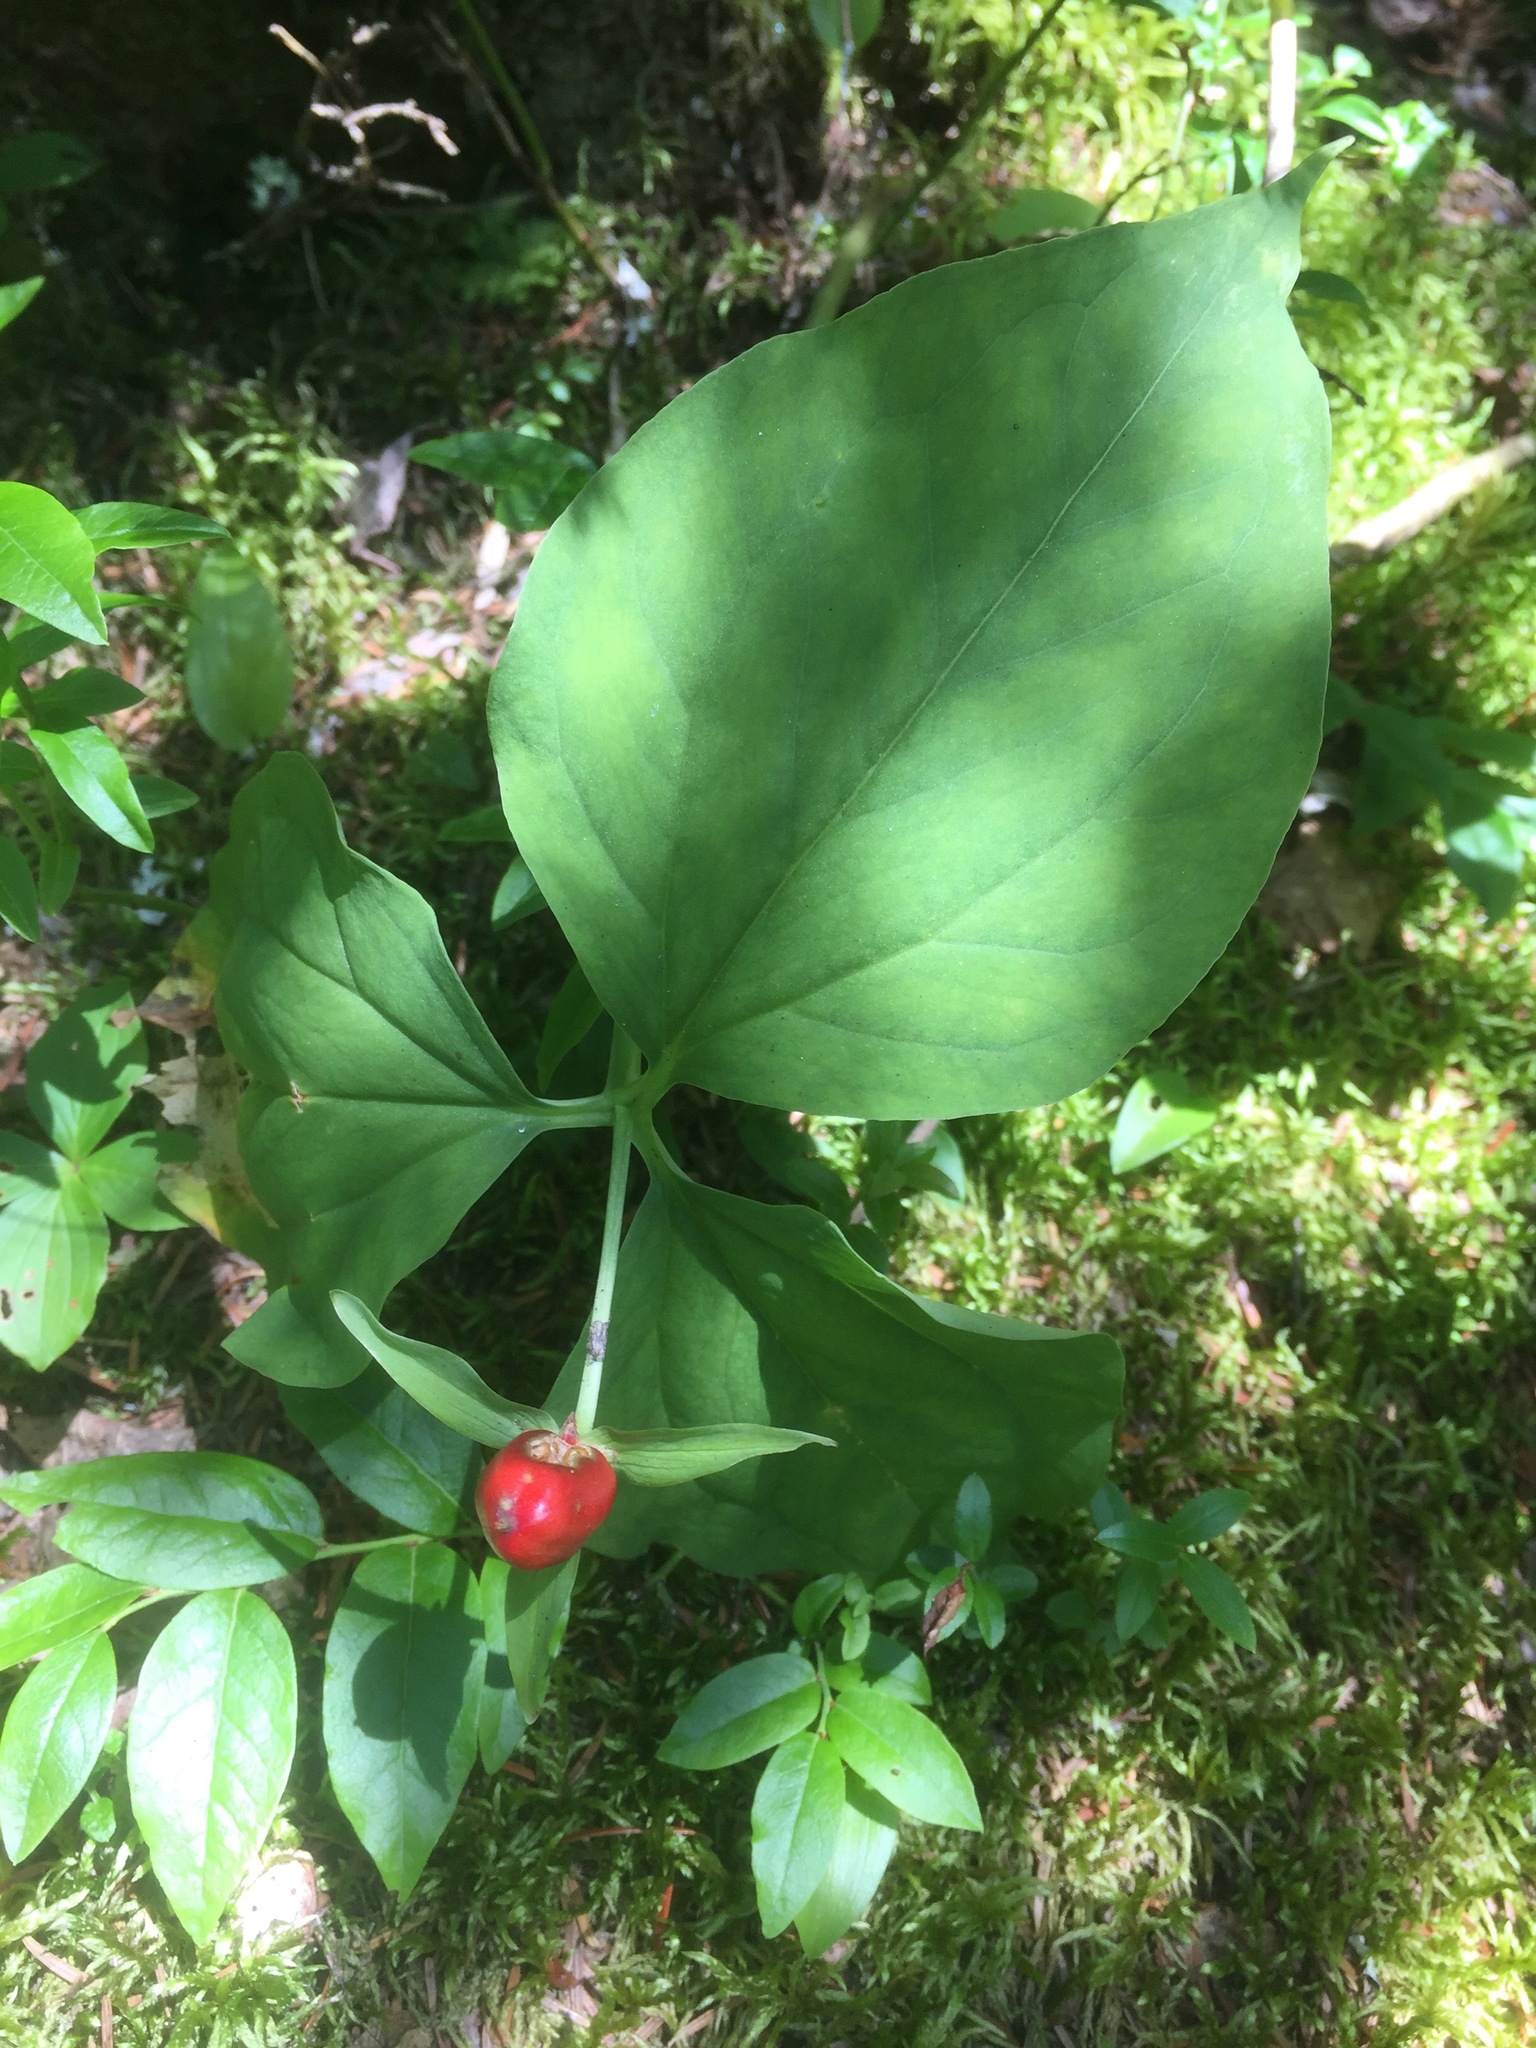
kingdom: Plantae
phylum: Tracheophyta
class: Liliopsida
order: Liliales
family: Melanthiaceae
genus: Trillium
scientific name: Trillium undulatum
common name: Paint trillium
